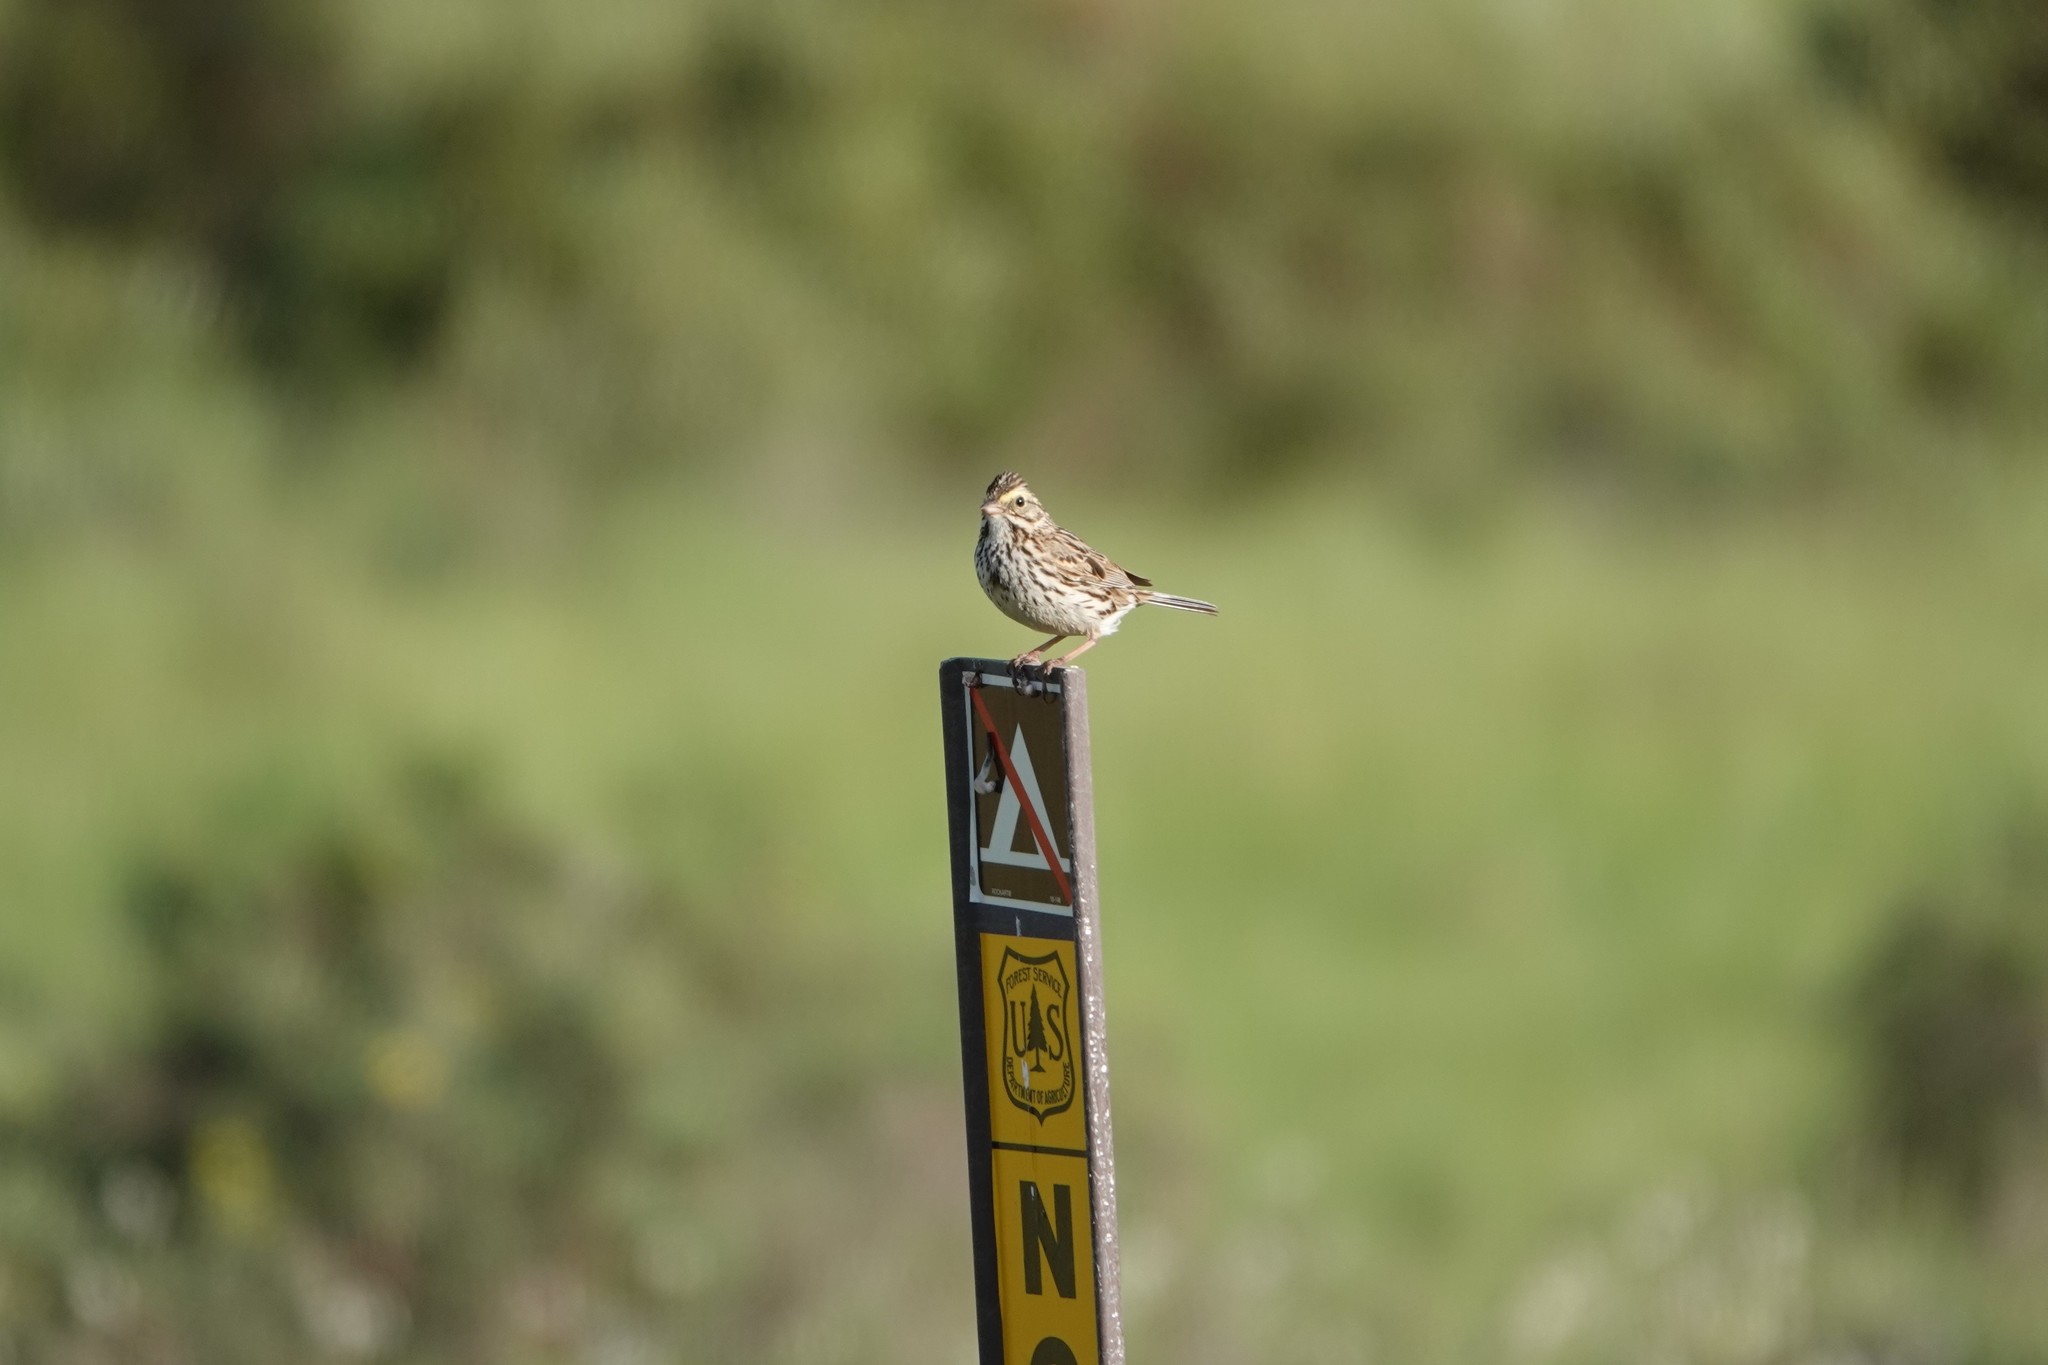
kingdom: Animalia
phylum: Chordata
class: Aves
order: Passeriformes
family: Passerellidae
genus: Passerculus
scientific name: Passerculus sandwichensis
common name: Savannah sparrow
